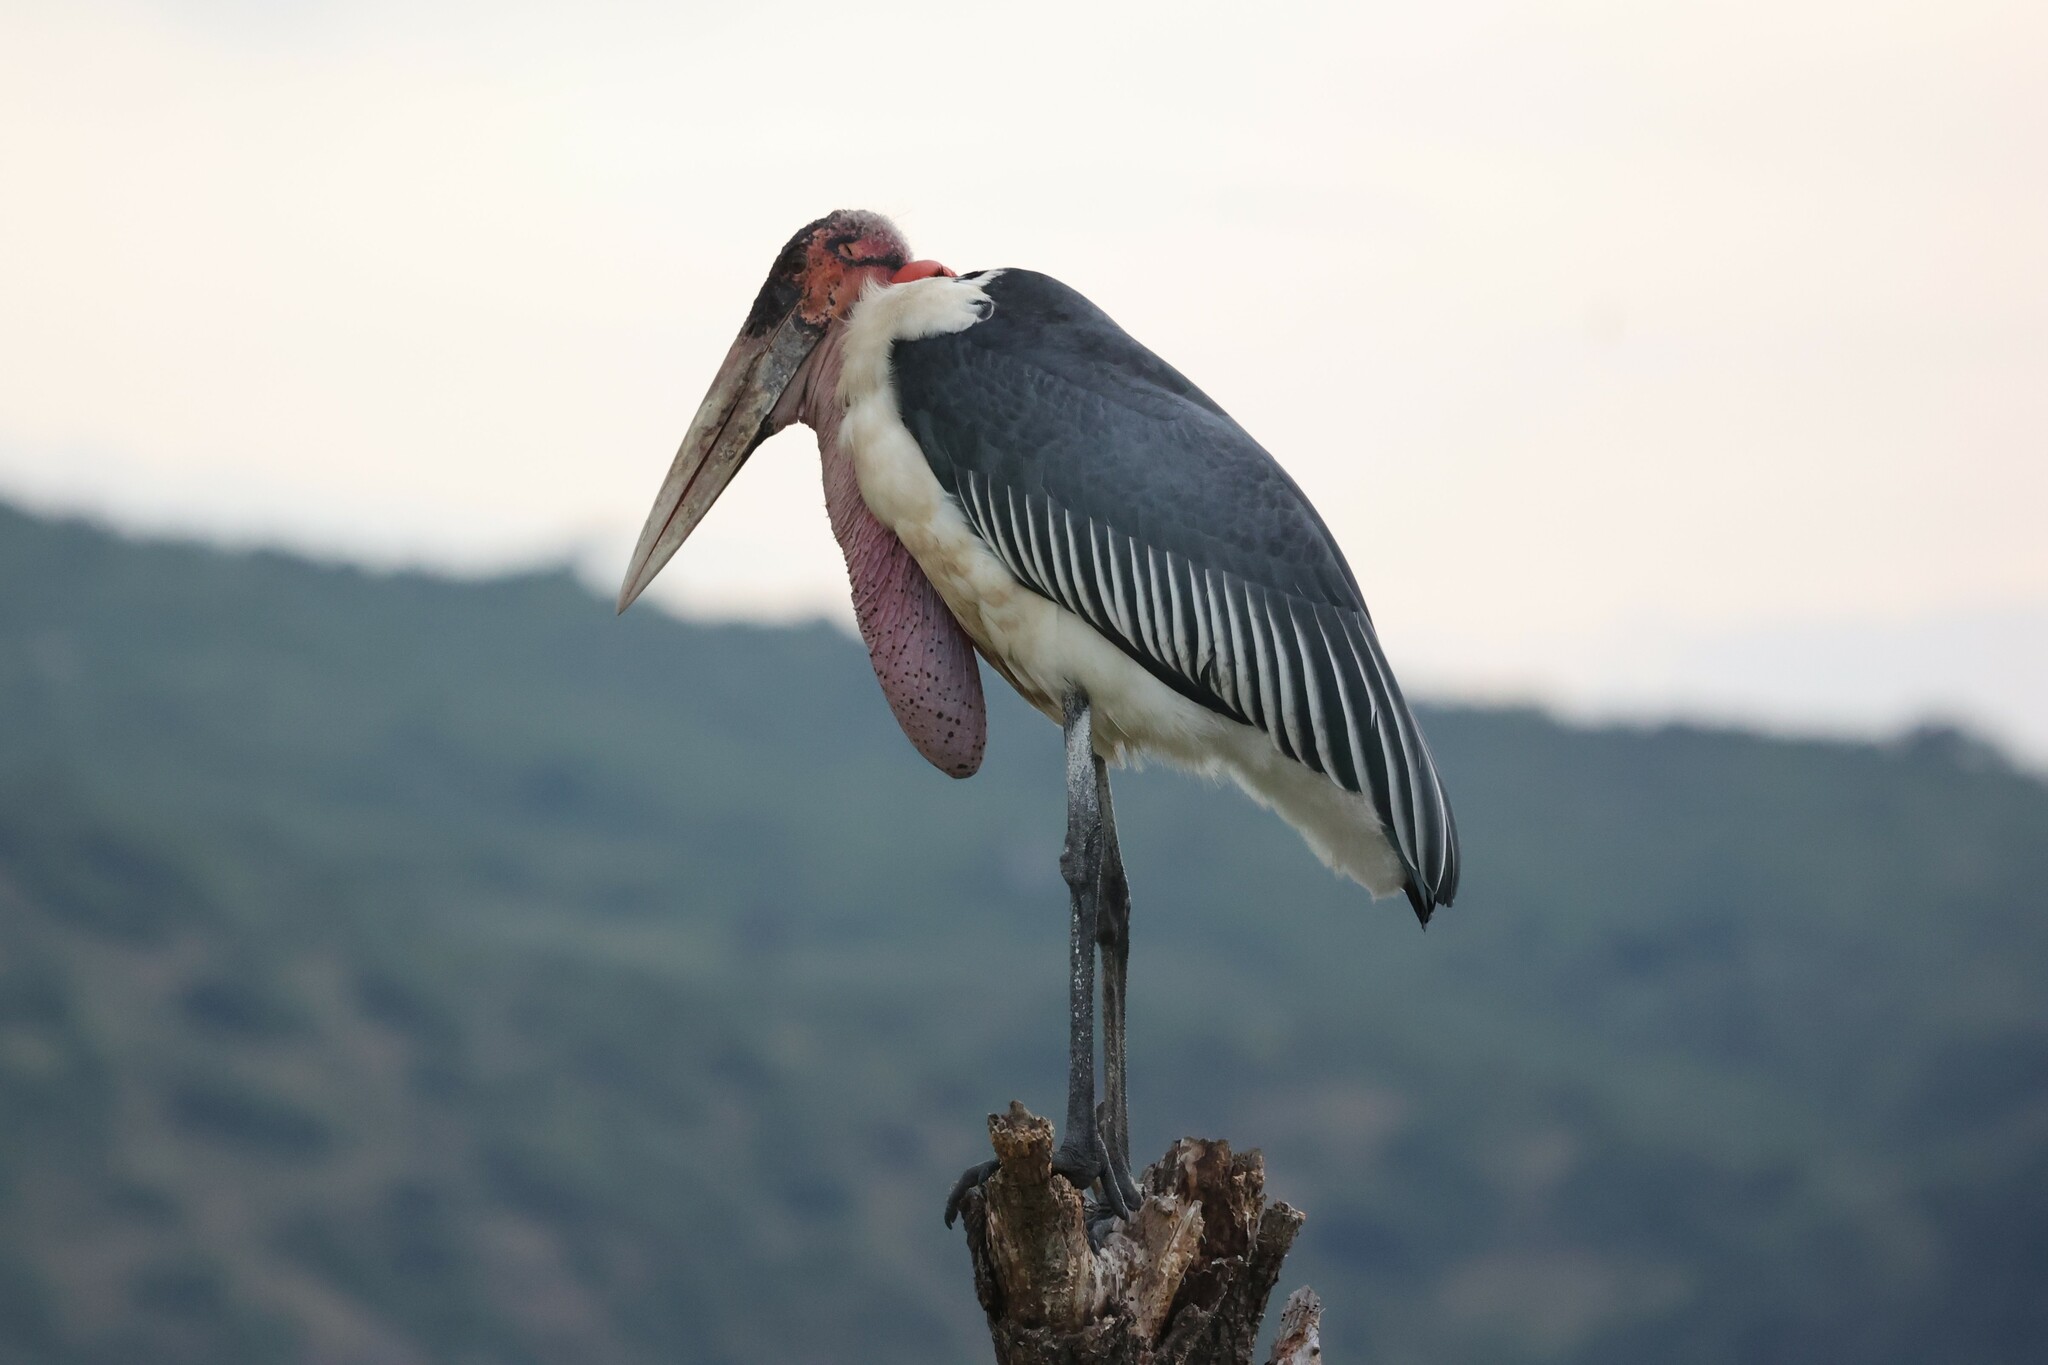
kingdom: Animalia
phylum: Chordata
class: Aves
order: Ciconiiformes
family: Ciconiidae
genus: Leptoptilos
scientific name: Leptoptilos crumenifer
